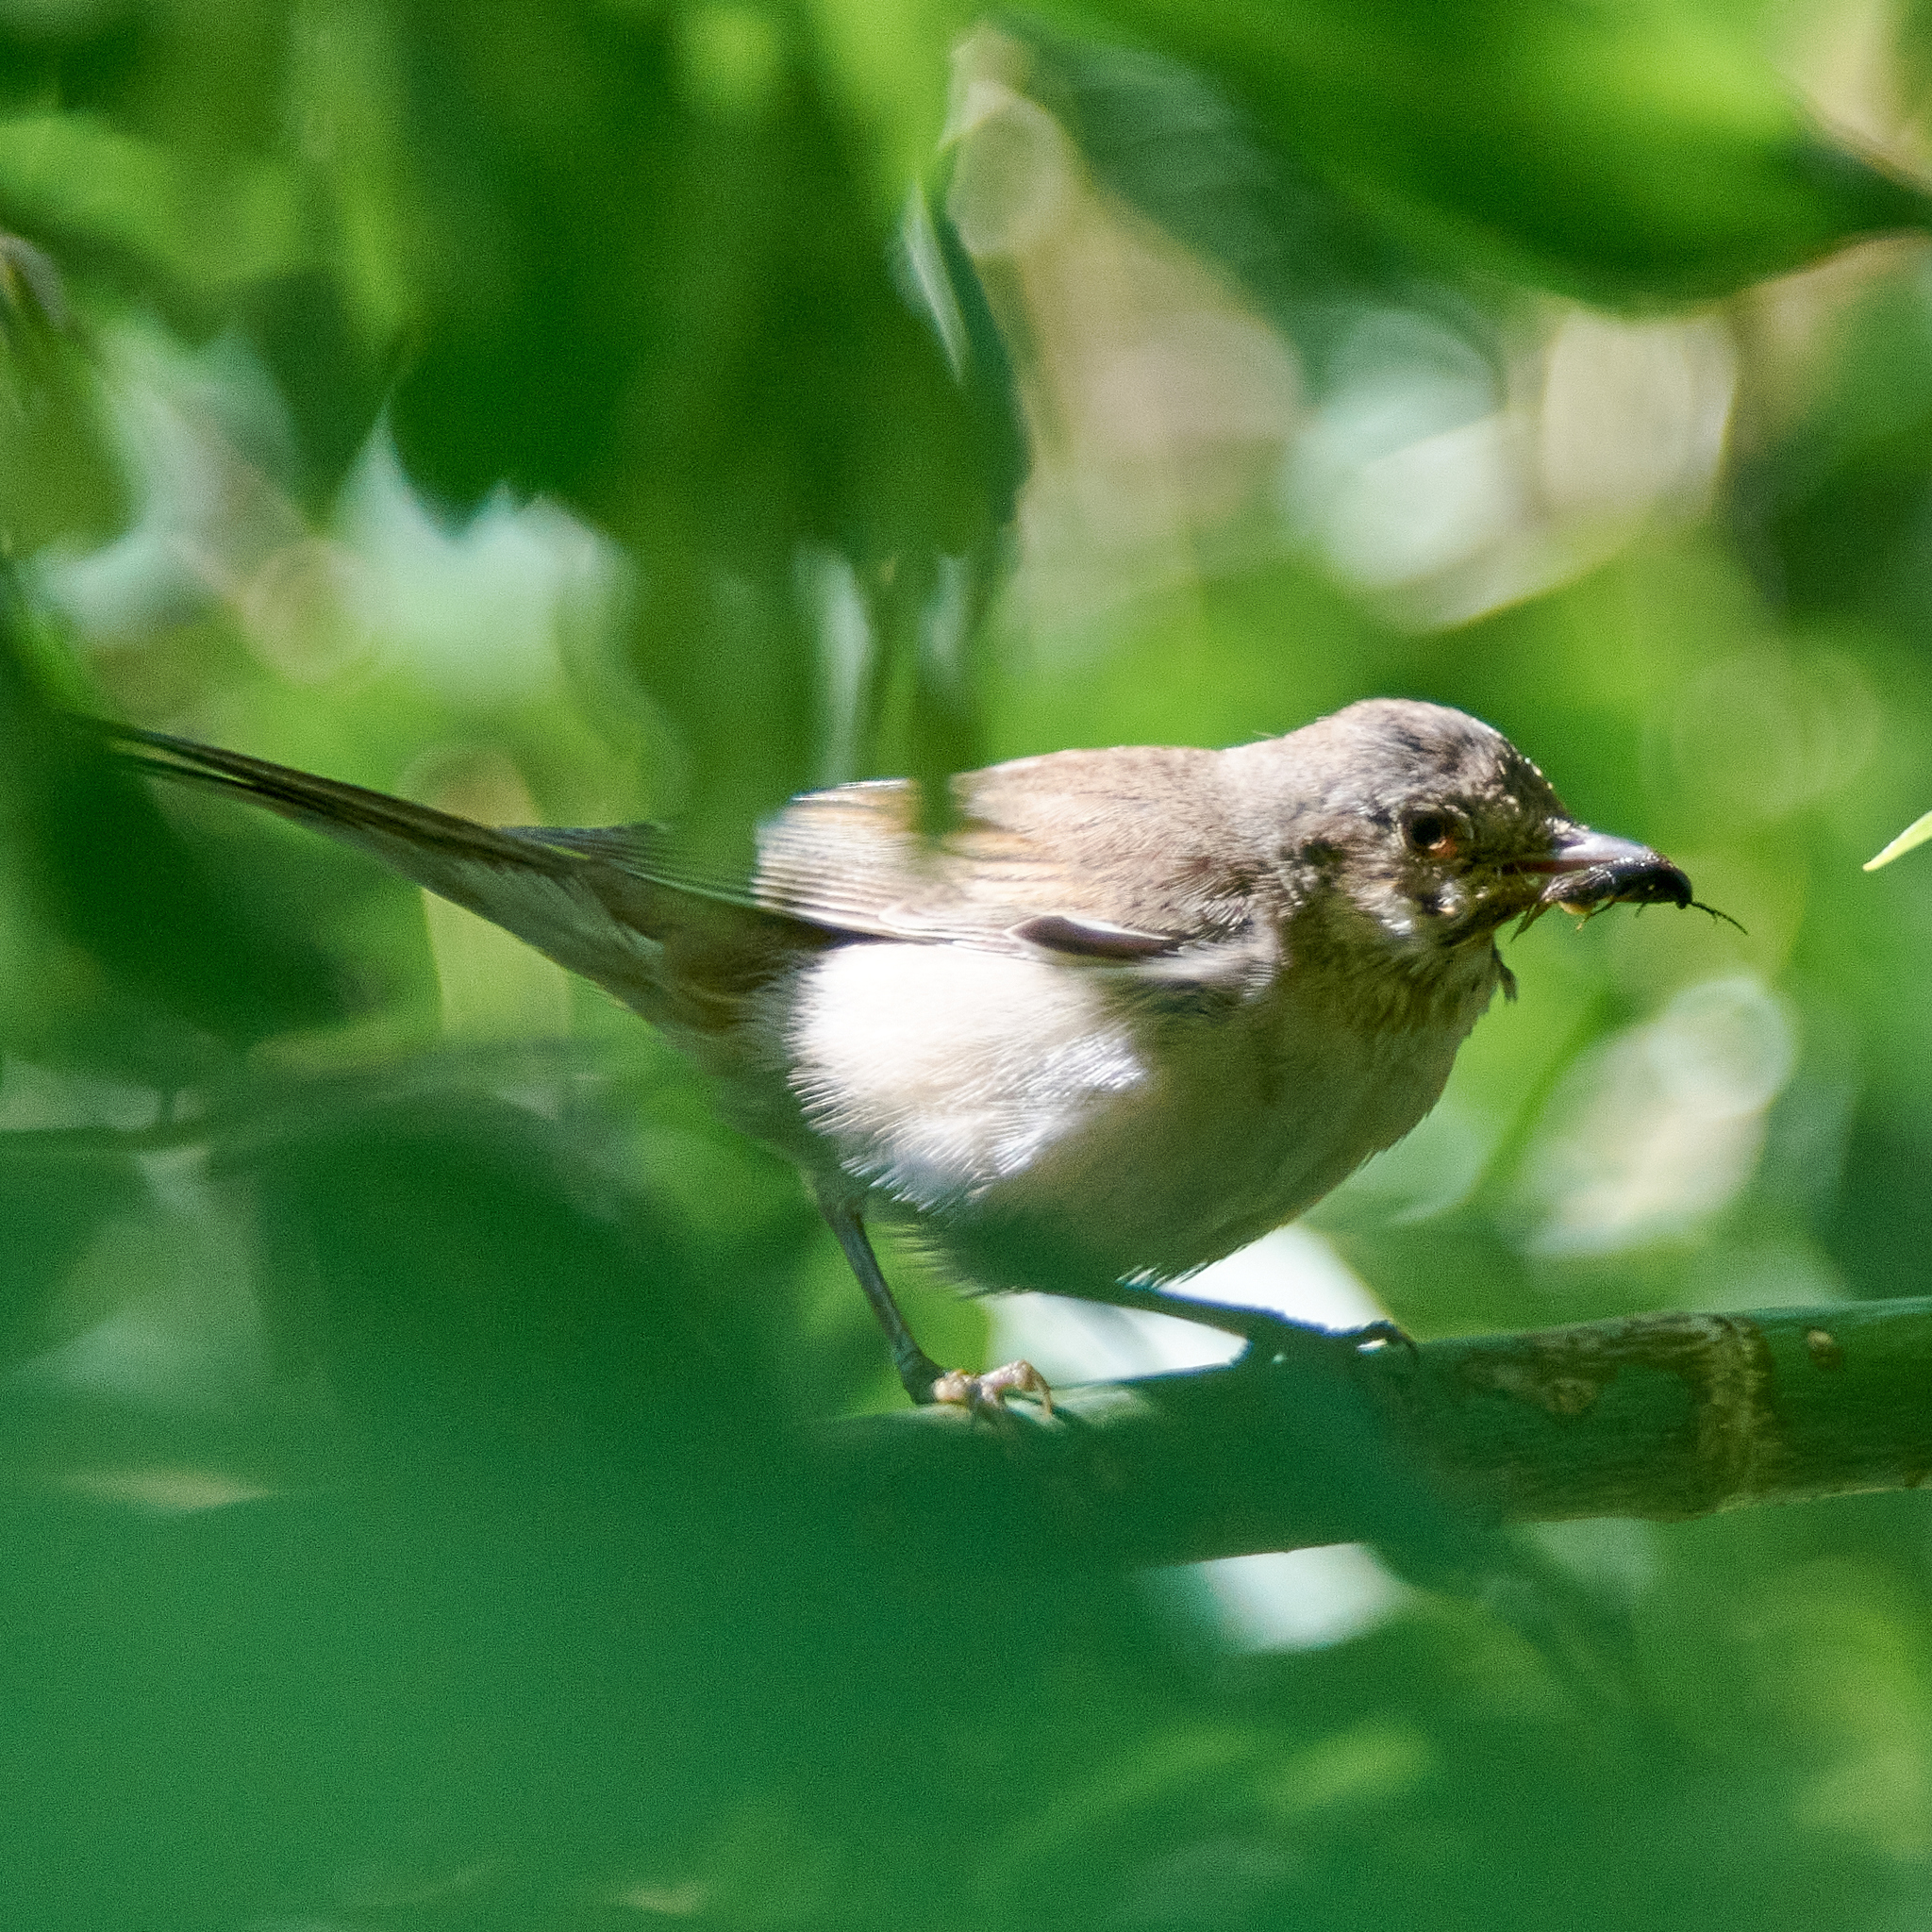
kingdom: Animalia
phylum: Chordata
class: Aves
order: Passeriformes
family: Sylviidae
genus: Sylvia
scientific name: Sylvia communis
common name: Common whitethroat
